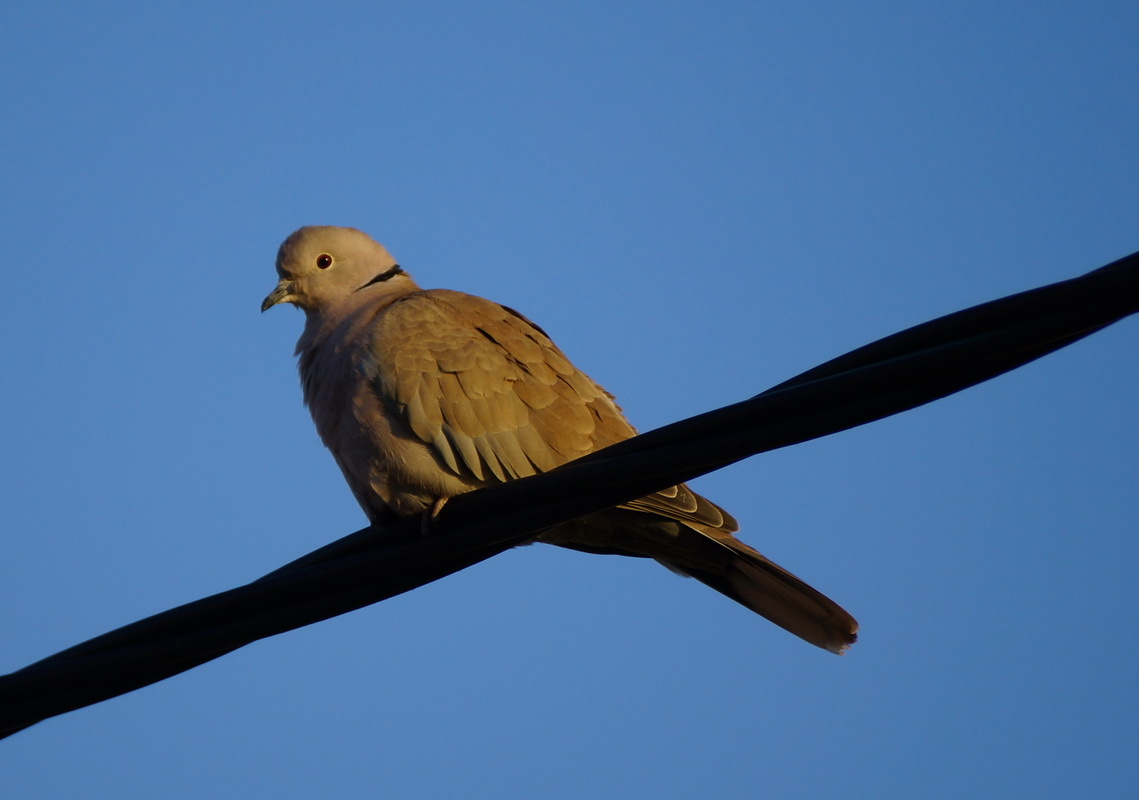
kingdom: Animalia
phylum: Chordata
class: Aves
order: Columbiformes
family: Columbidae
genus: Streptopelia
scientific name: Streptopelia decaocto
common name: Eurasian collared dove
